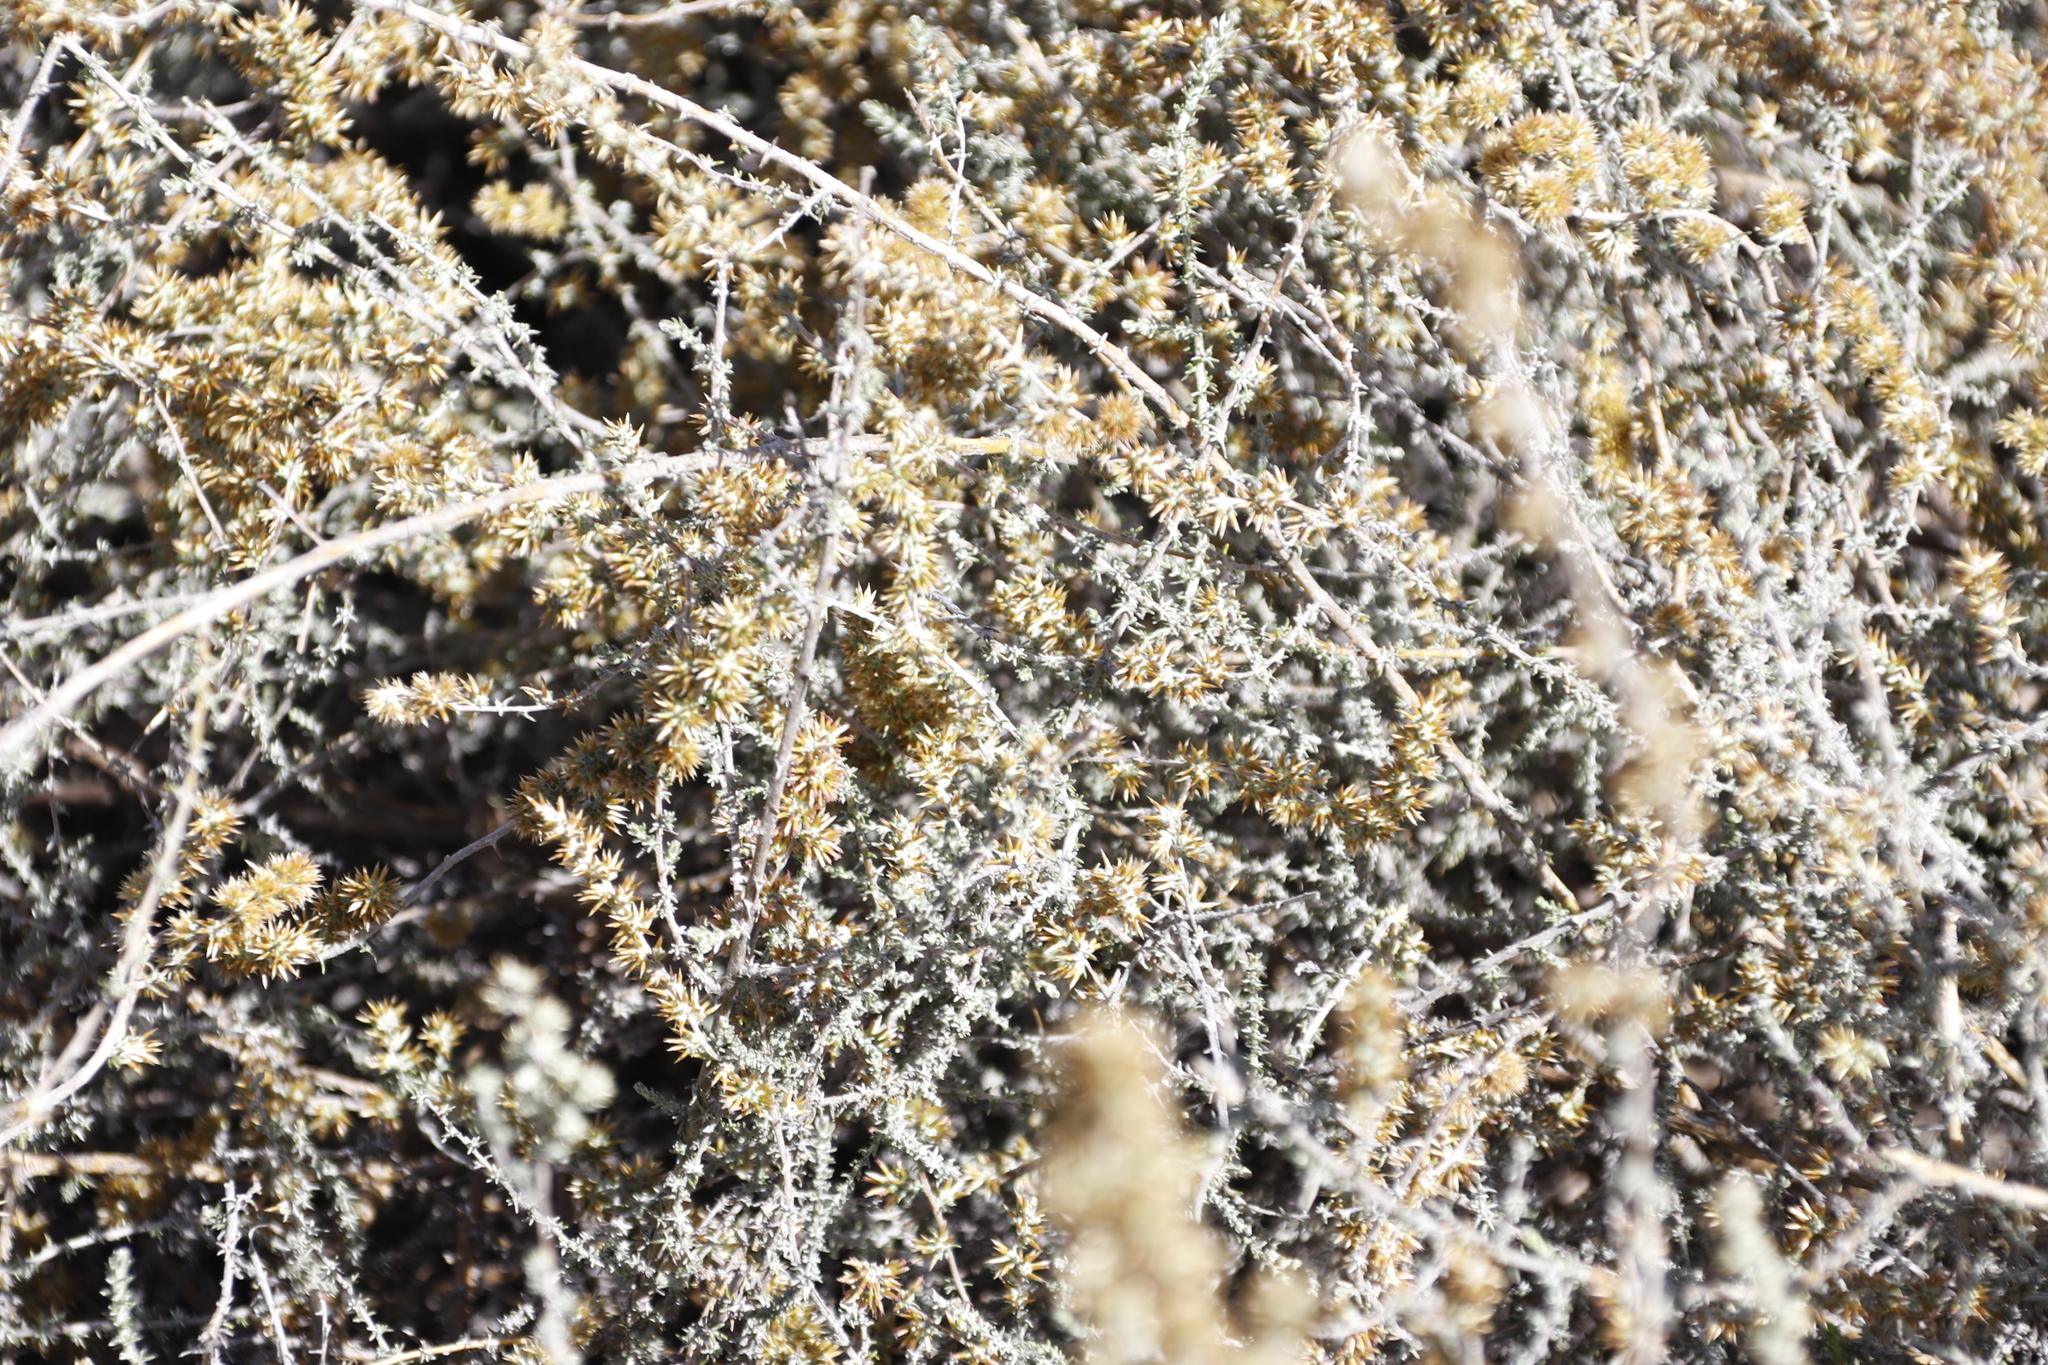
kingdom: Plantae
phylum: Tracheophyta
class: Magnoliopsida
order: Asterales
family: Asteraceae
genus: Seriphium
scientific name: Seriphium
